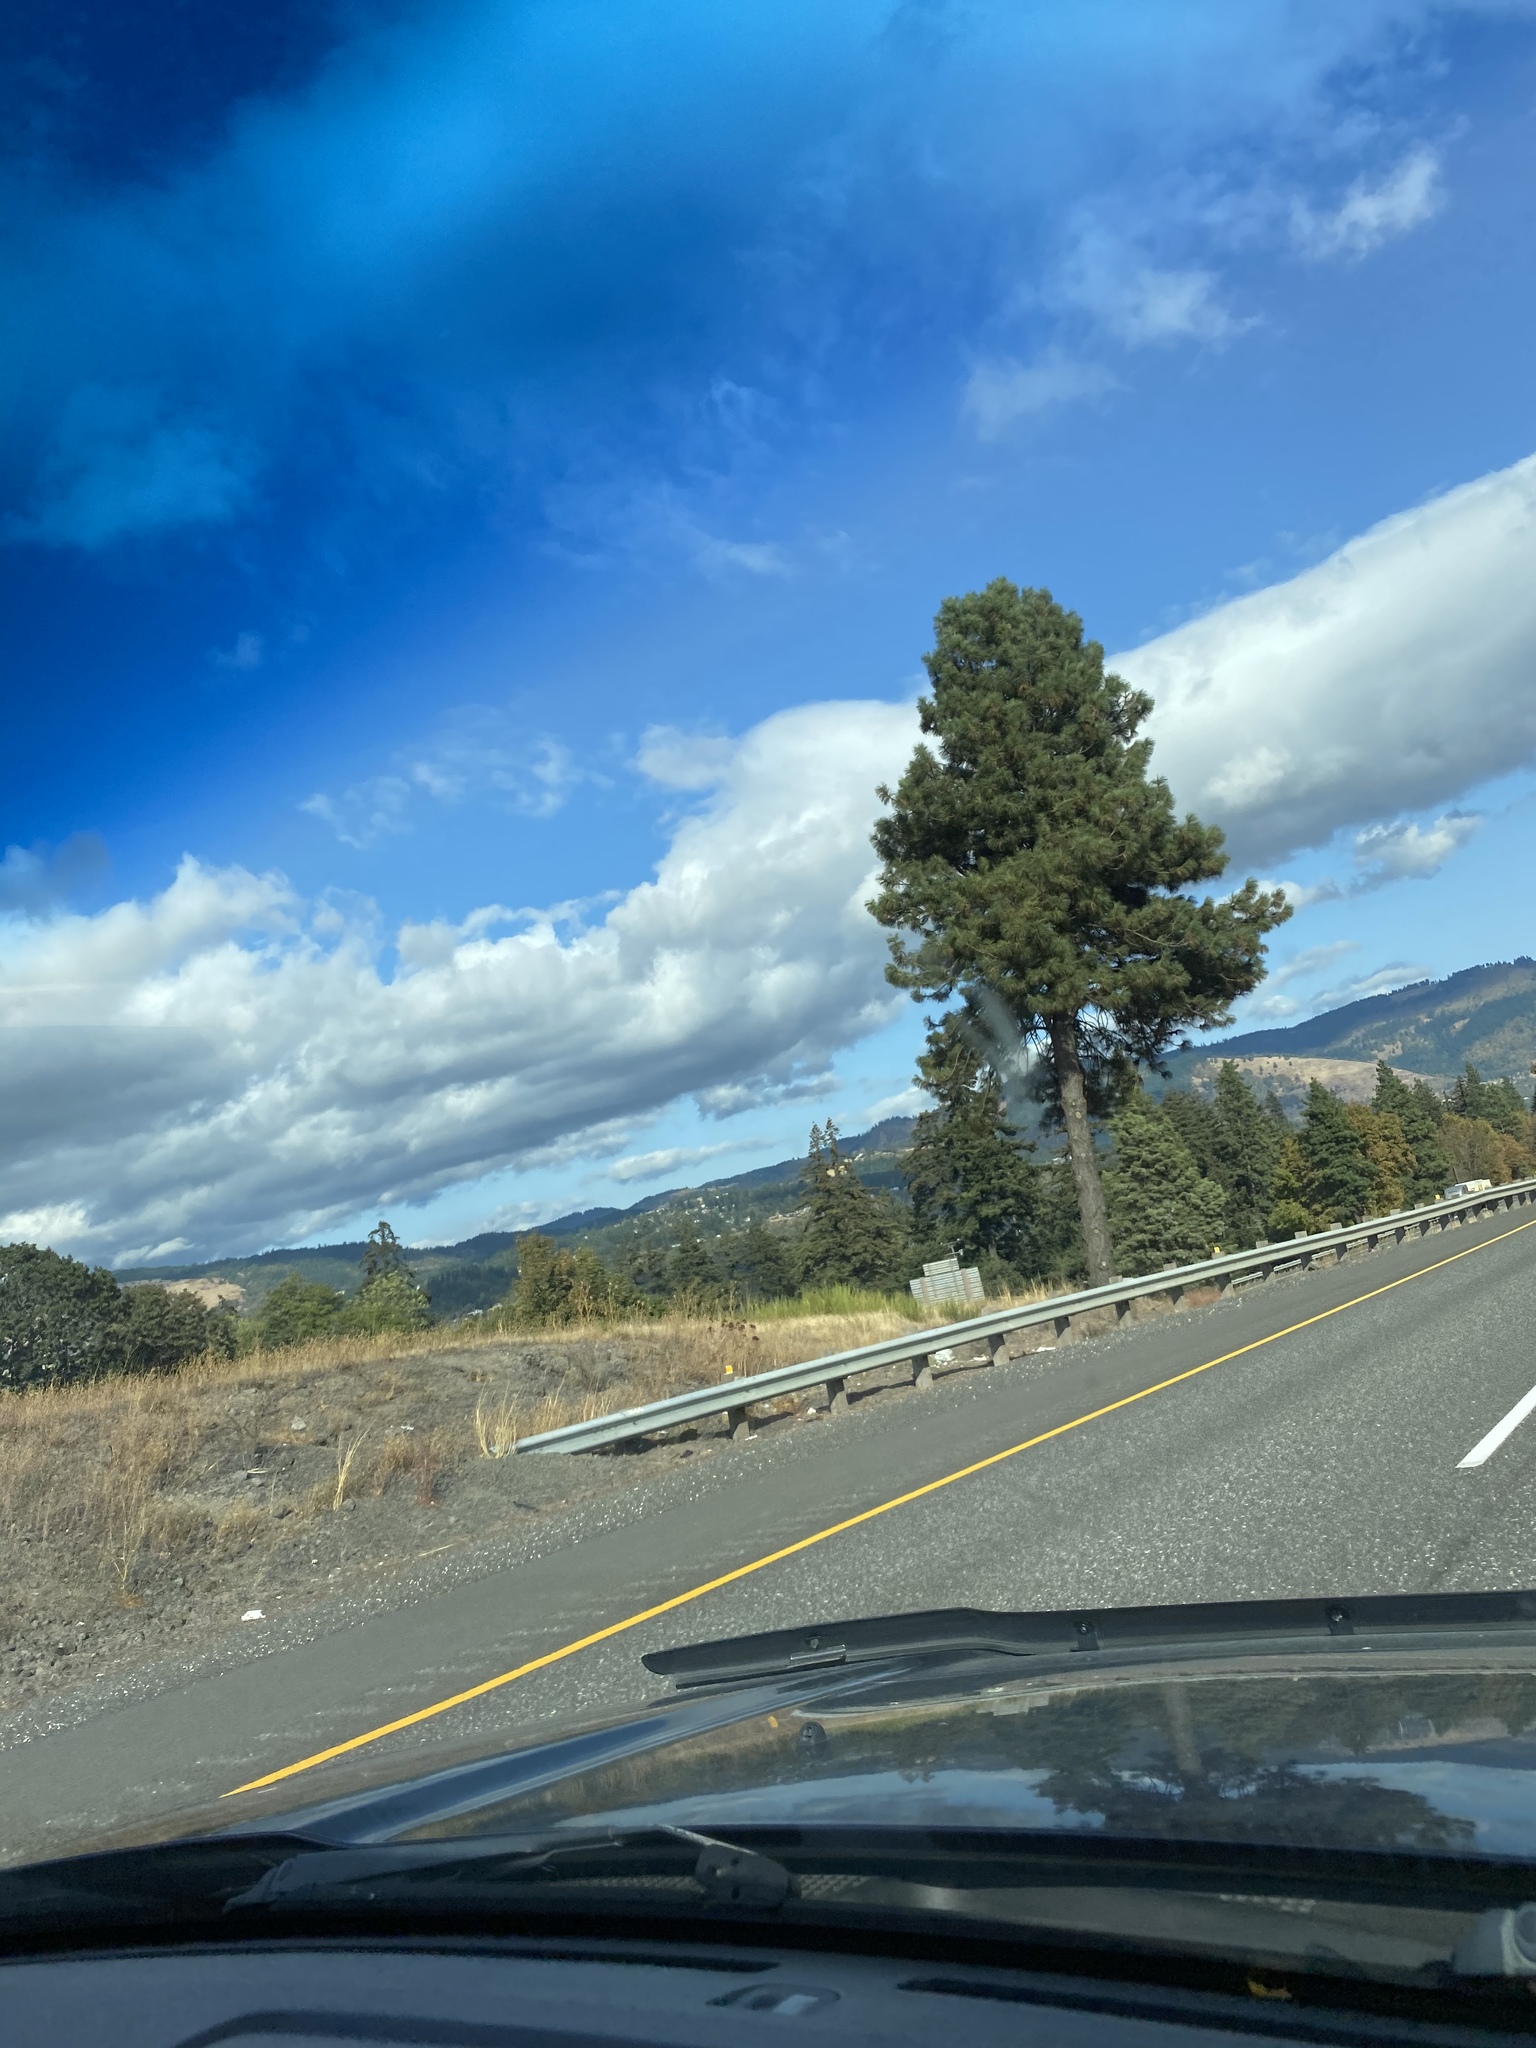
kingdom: Plantae
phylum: Tracheophyta
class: Pinopsida
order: Pinales
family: Pinaceae
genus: Pinus
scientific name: Pinus ponderosa
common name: Western yellow-pine
